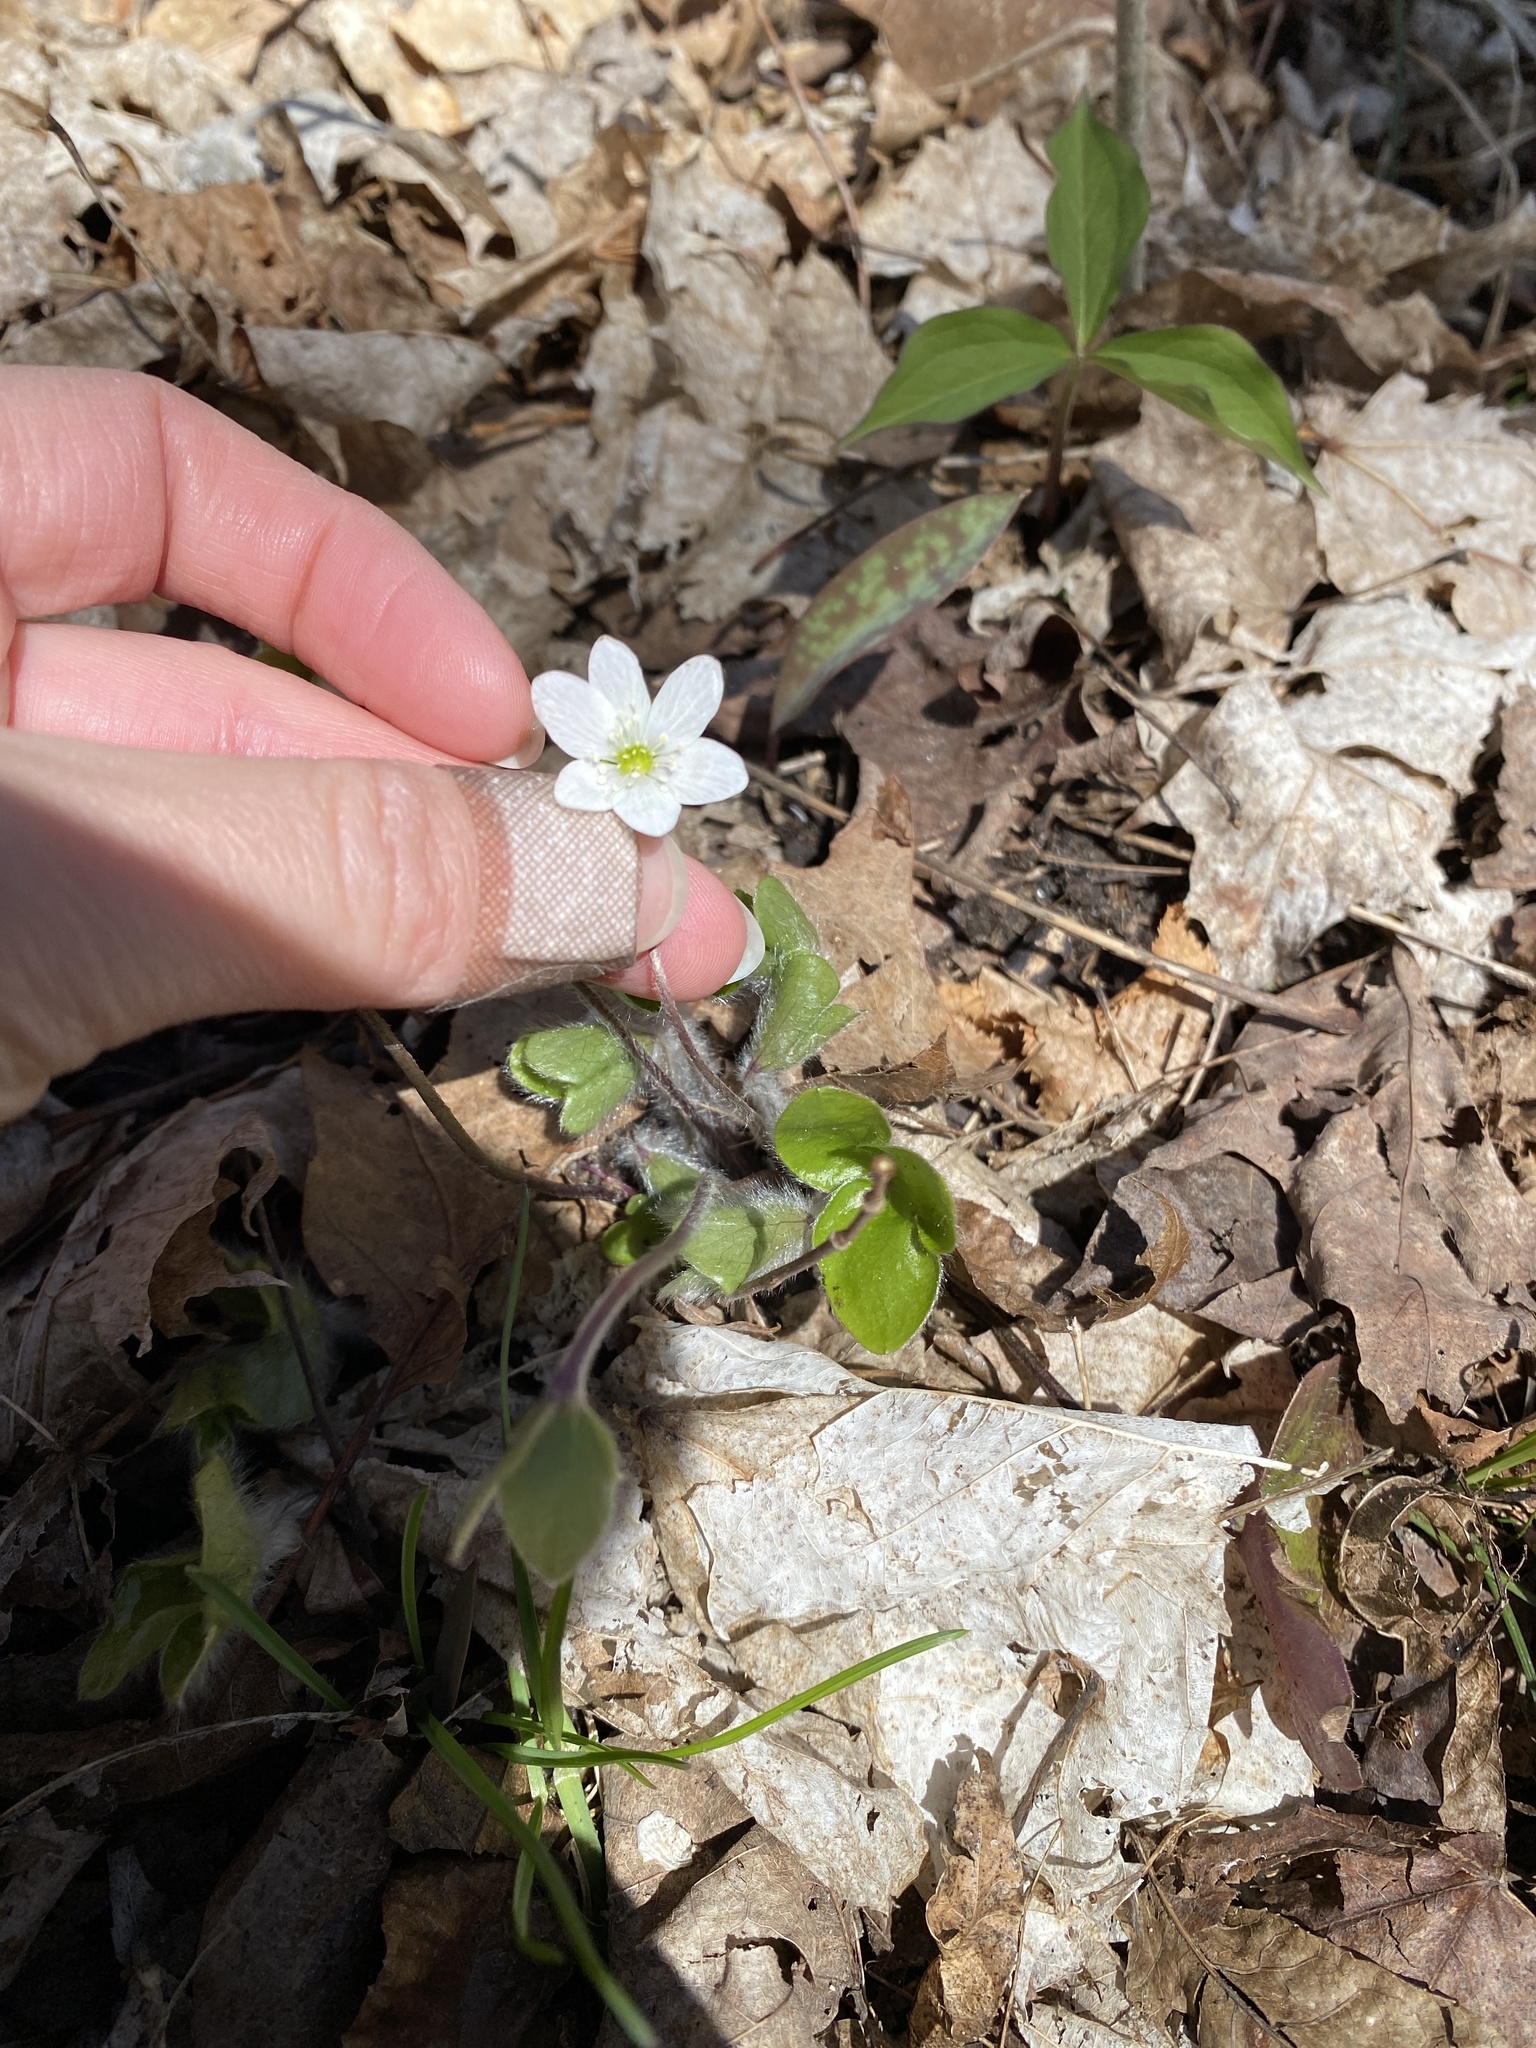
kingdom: Plantae
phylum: Tracheophyta
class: Magnoliopsida
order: Ranunculales
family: Ranunculaceae
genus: Hepatica
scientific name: Hepatica americana
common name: American hepatica
